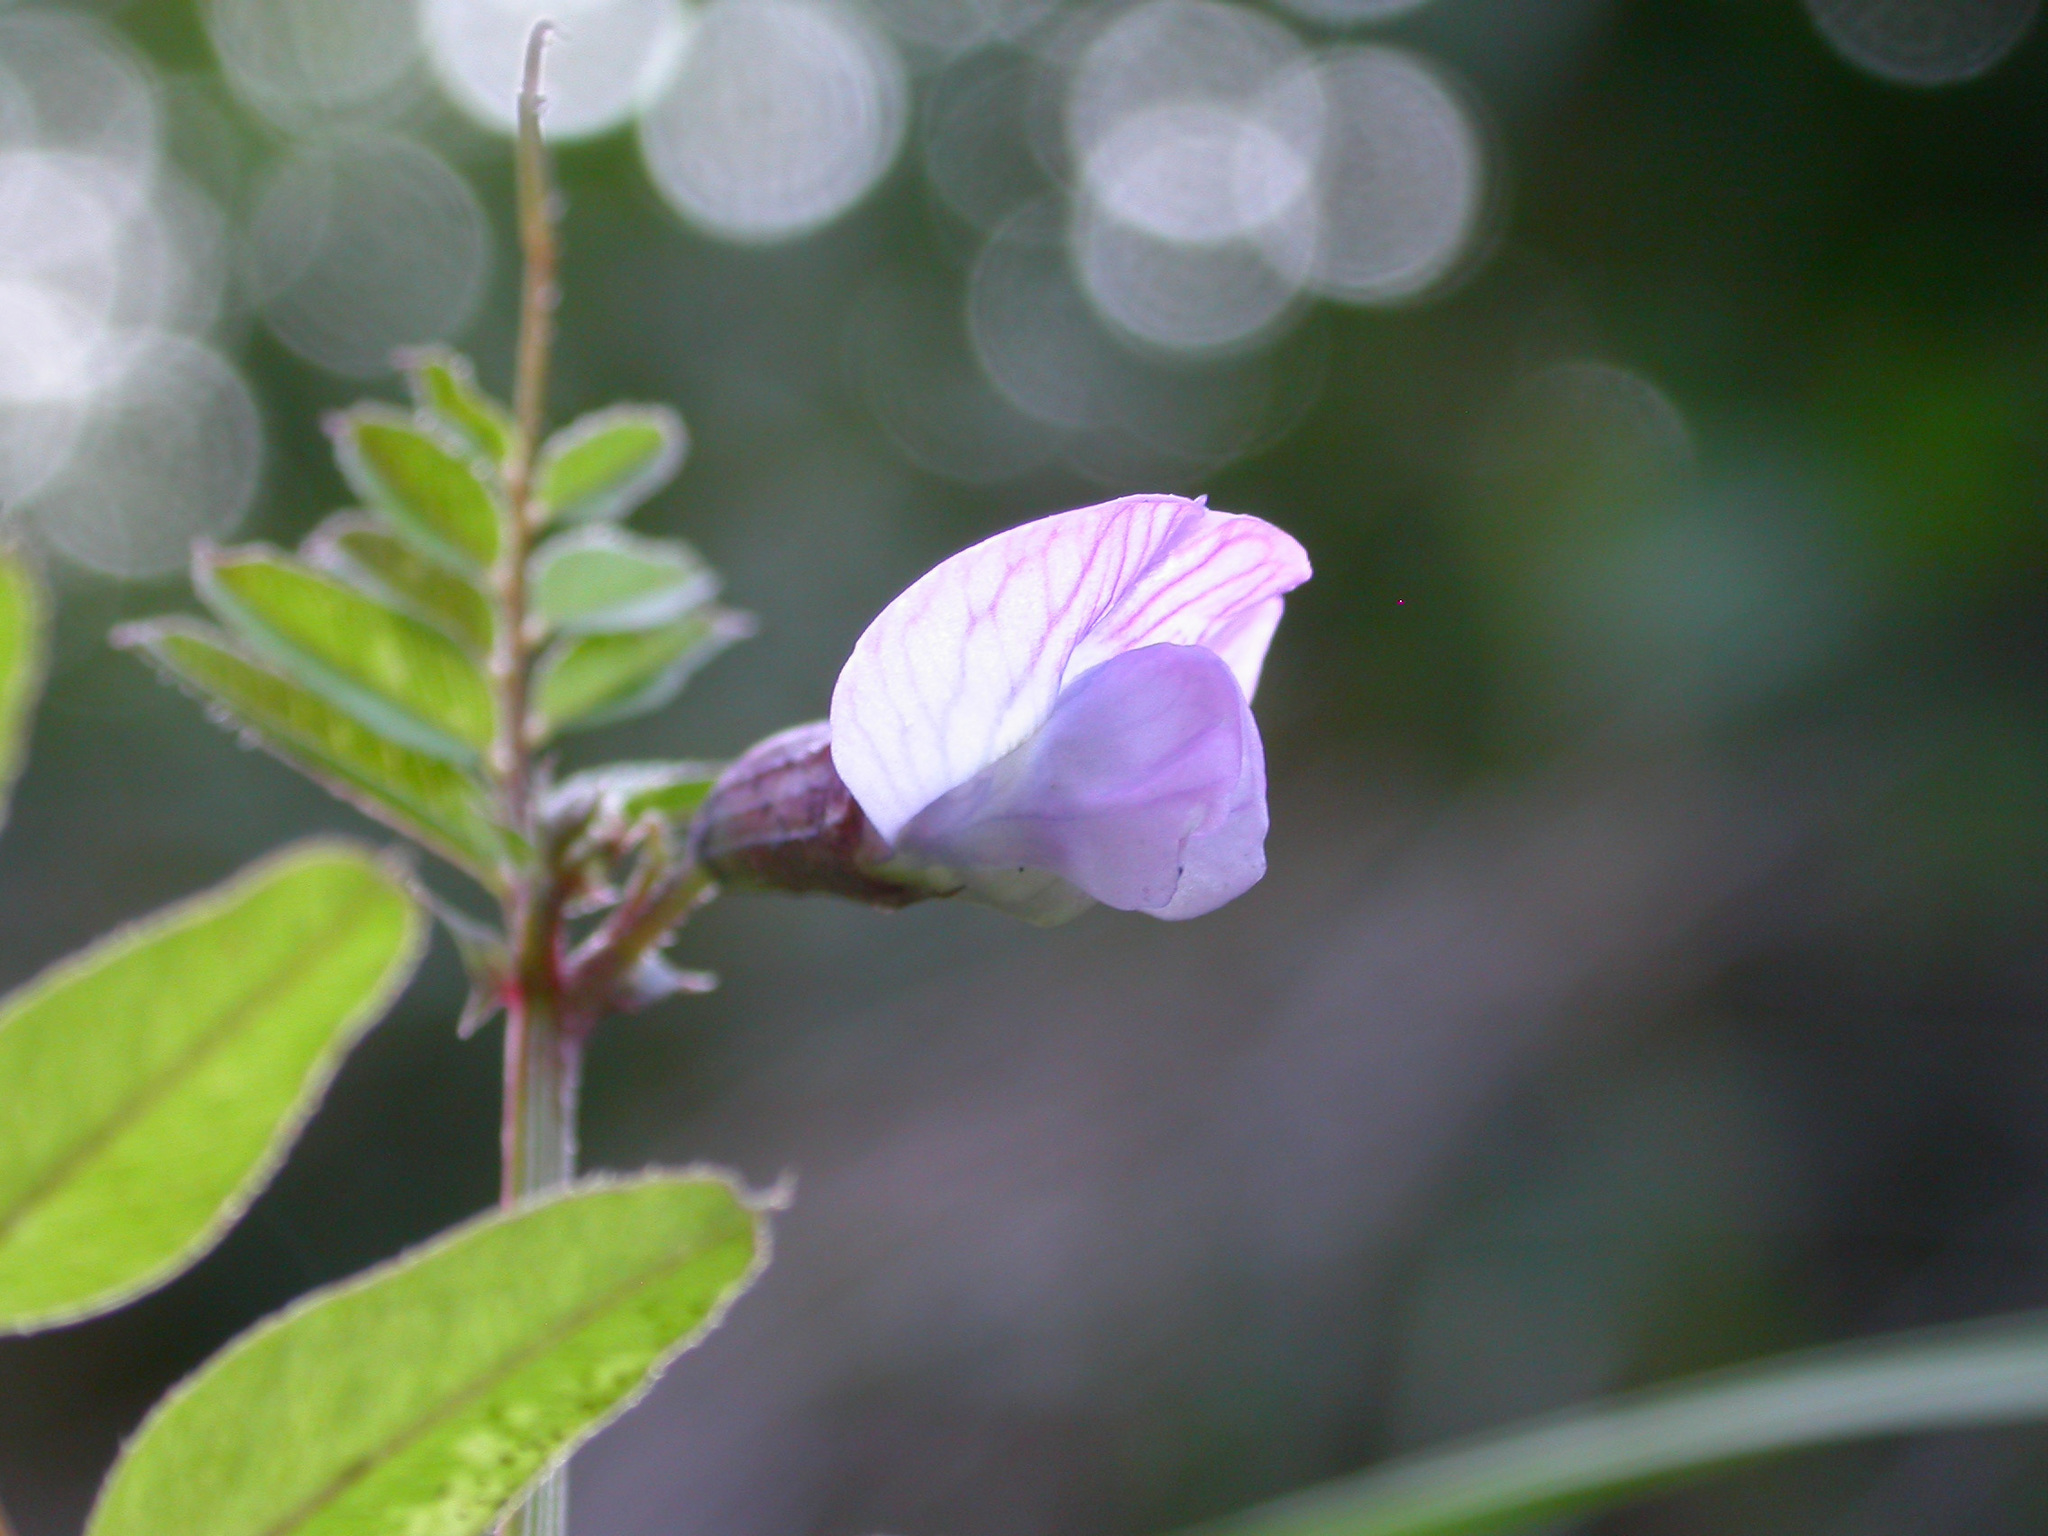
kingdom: Plantae
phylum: Tracheophyta
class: Magnoliopsida
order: Fabales
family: Fabaceae
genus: Vicia
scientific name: Vicia sepium
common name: Bush vetch
